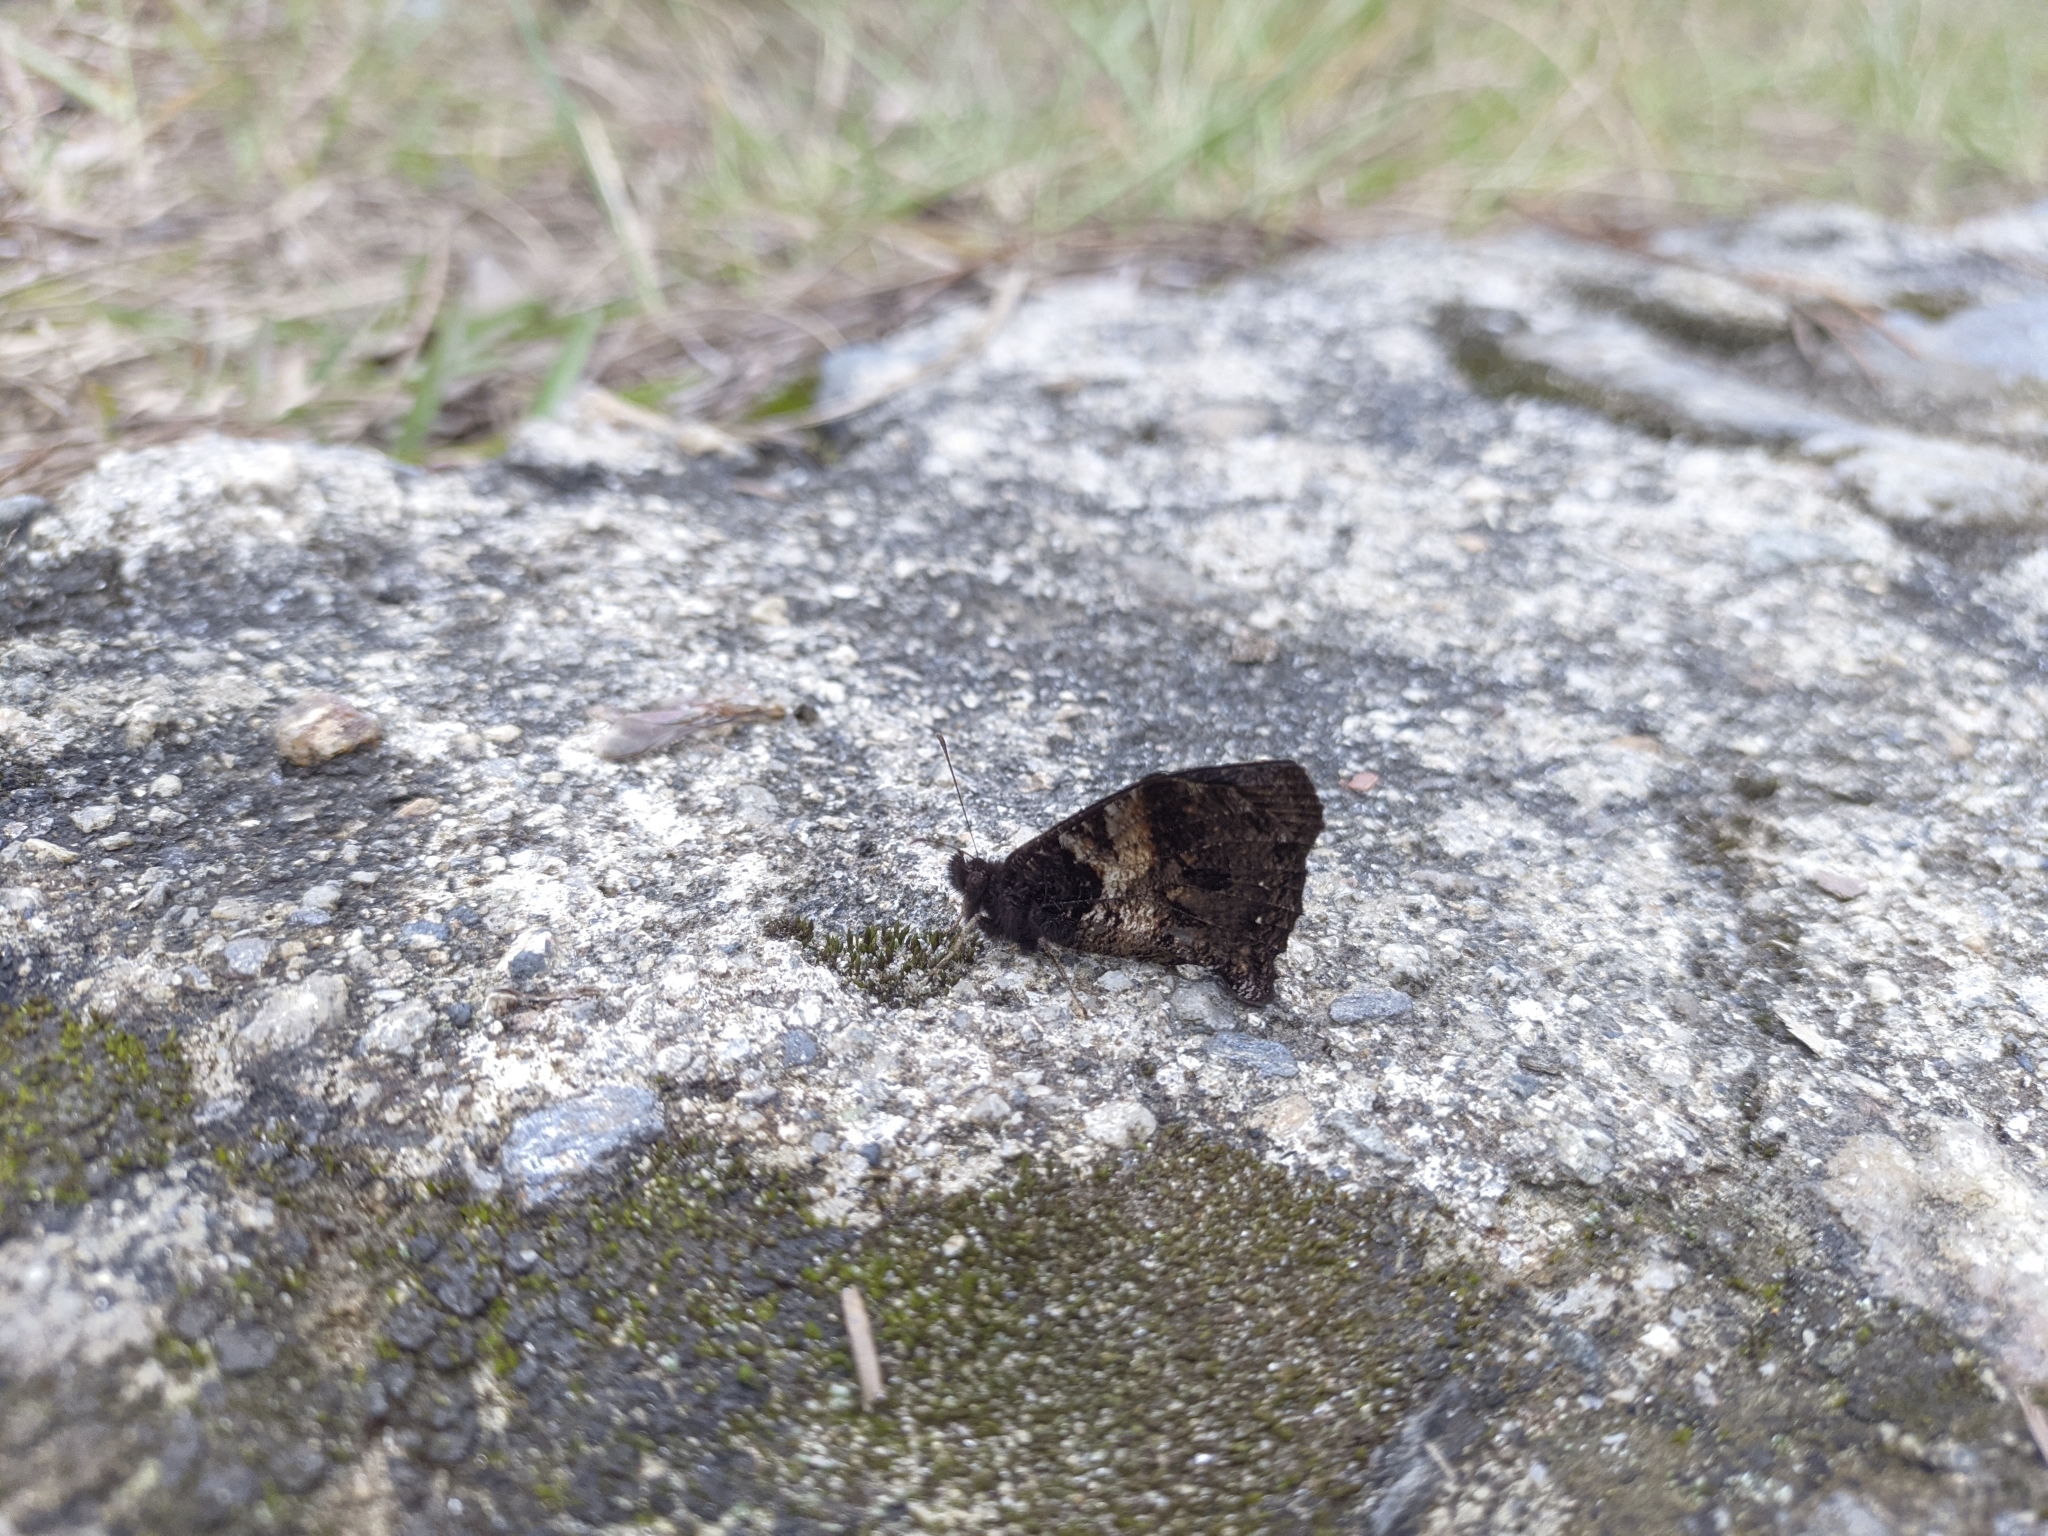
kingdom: Animalia
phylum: Arthropoda
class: Insecta
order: Lepidoptera
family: Nymphalidae
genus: Steroma
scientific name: Steroma polyxo
